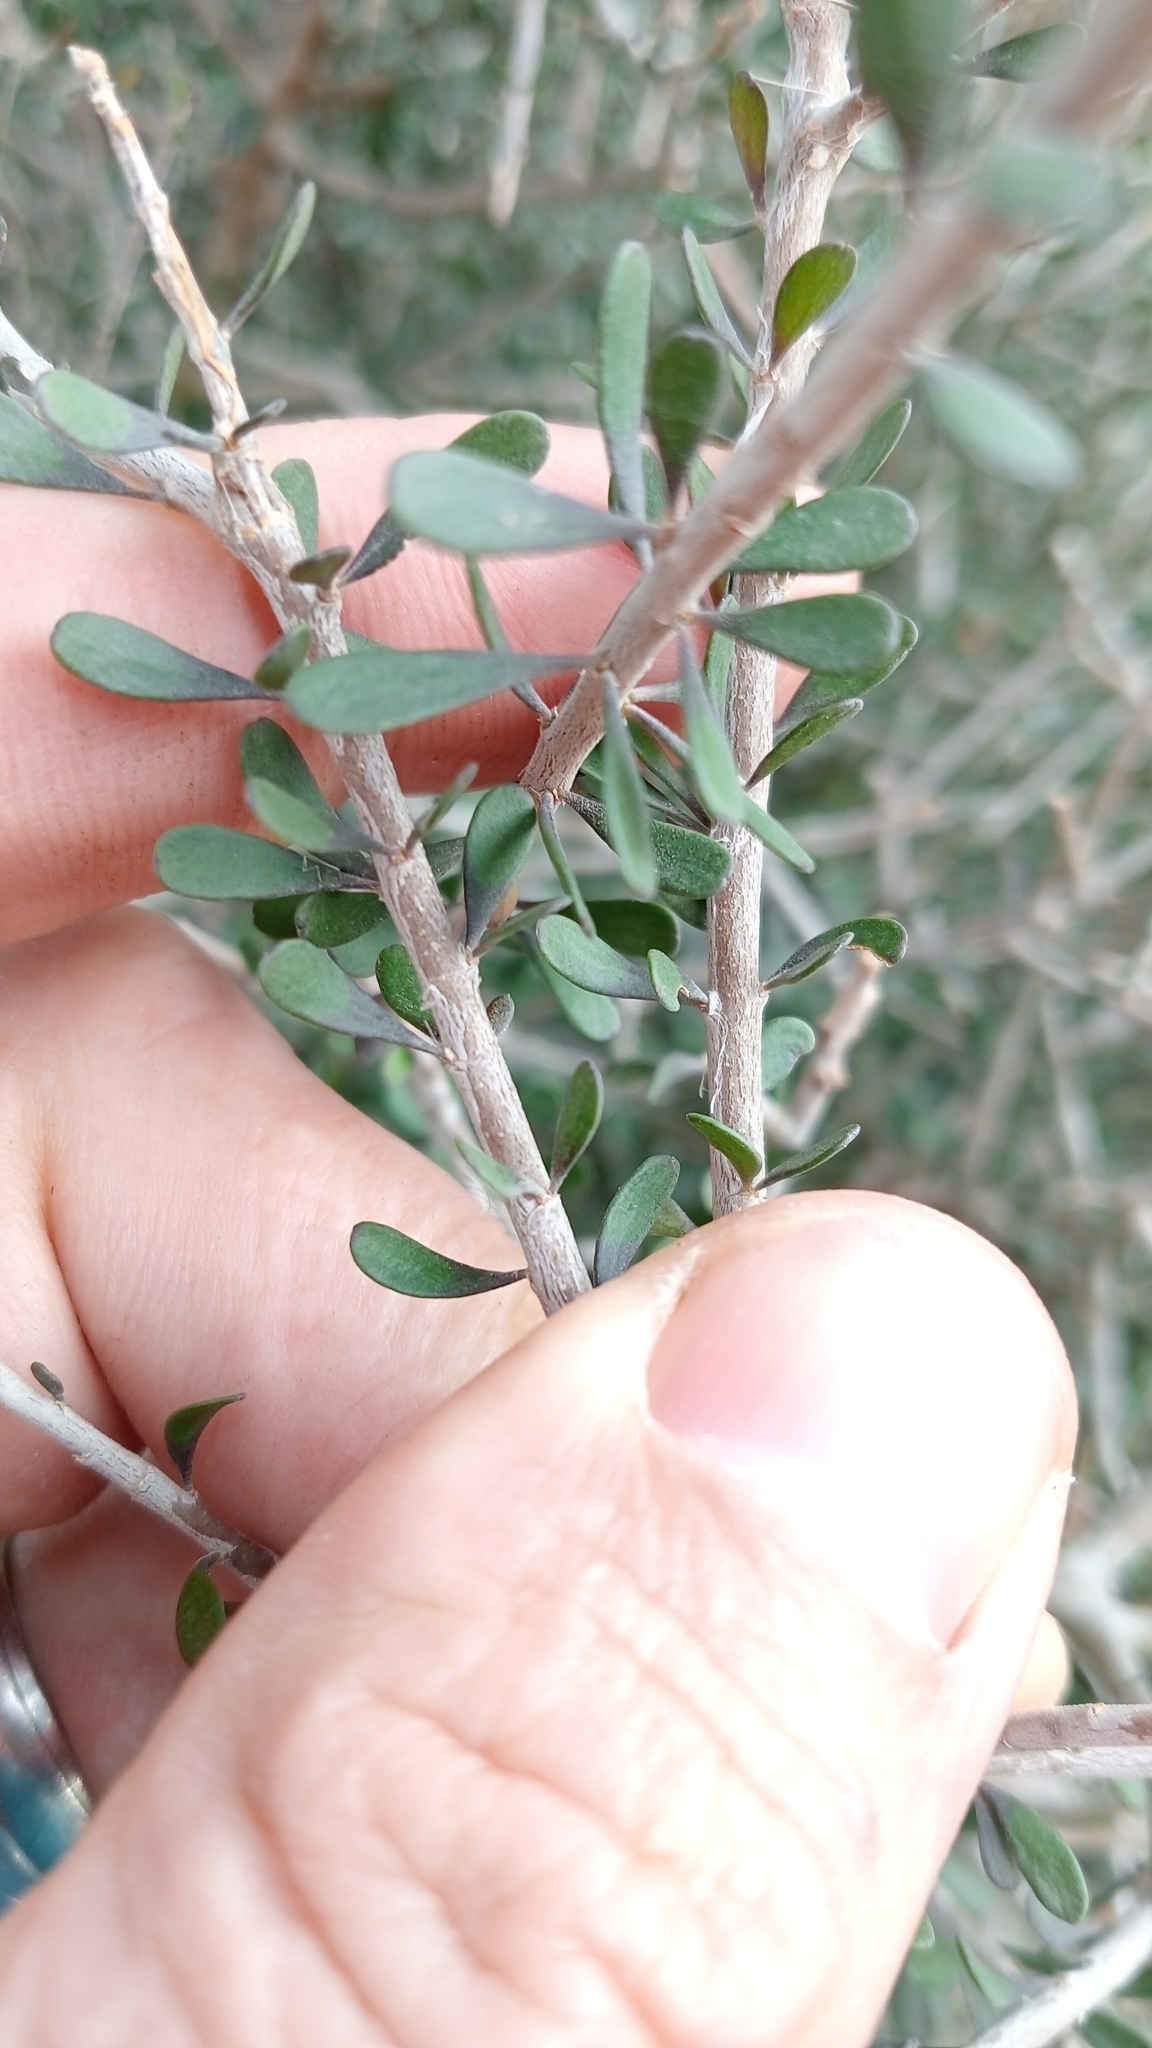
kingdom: Plantae
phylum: Tracheophyta
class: Magnoliopsida
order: Malpighiales
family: Violaceae
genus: Melicytus
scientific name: Melicytus alpinus
